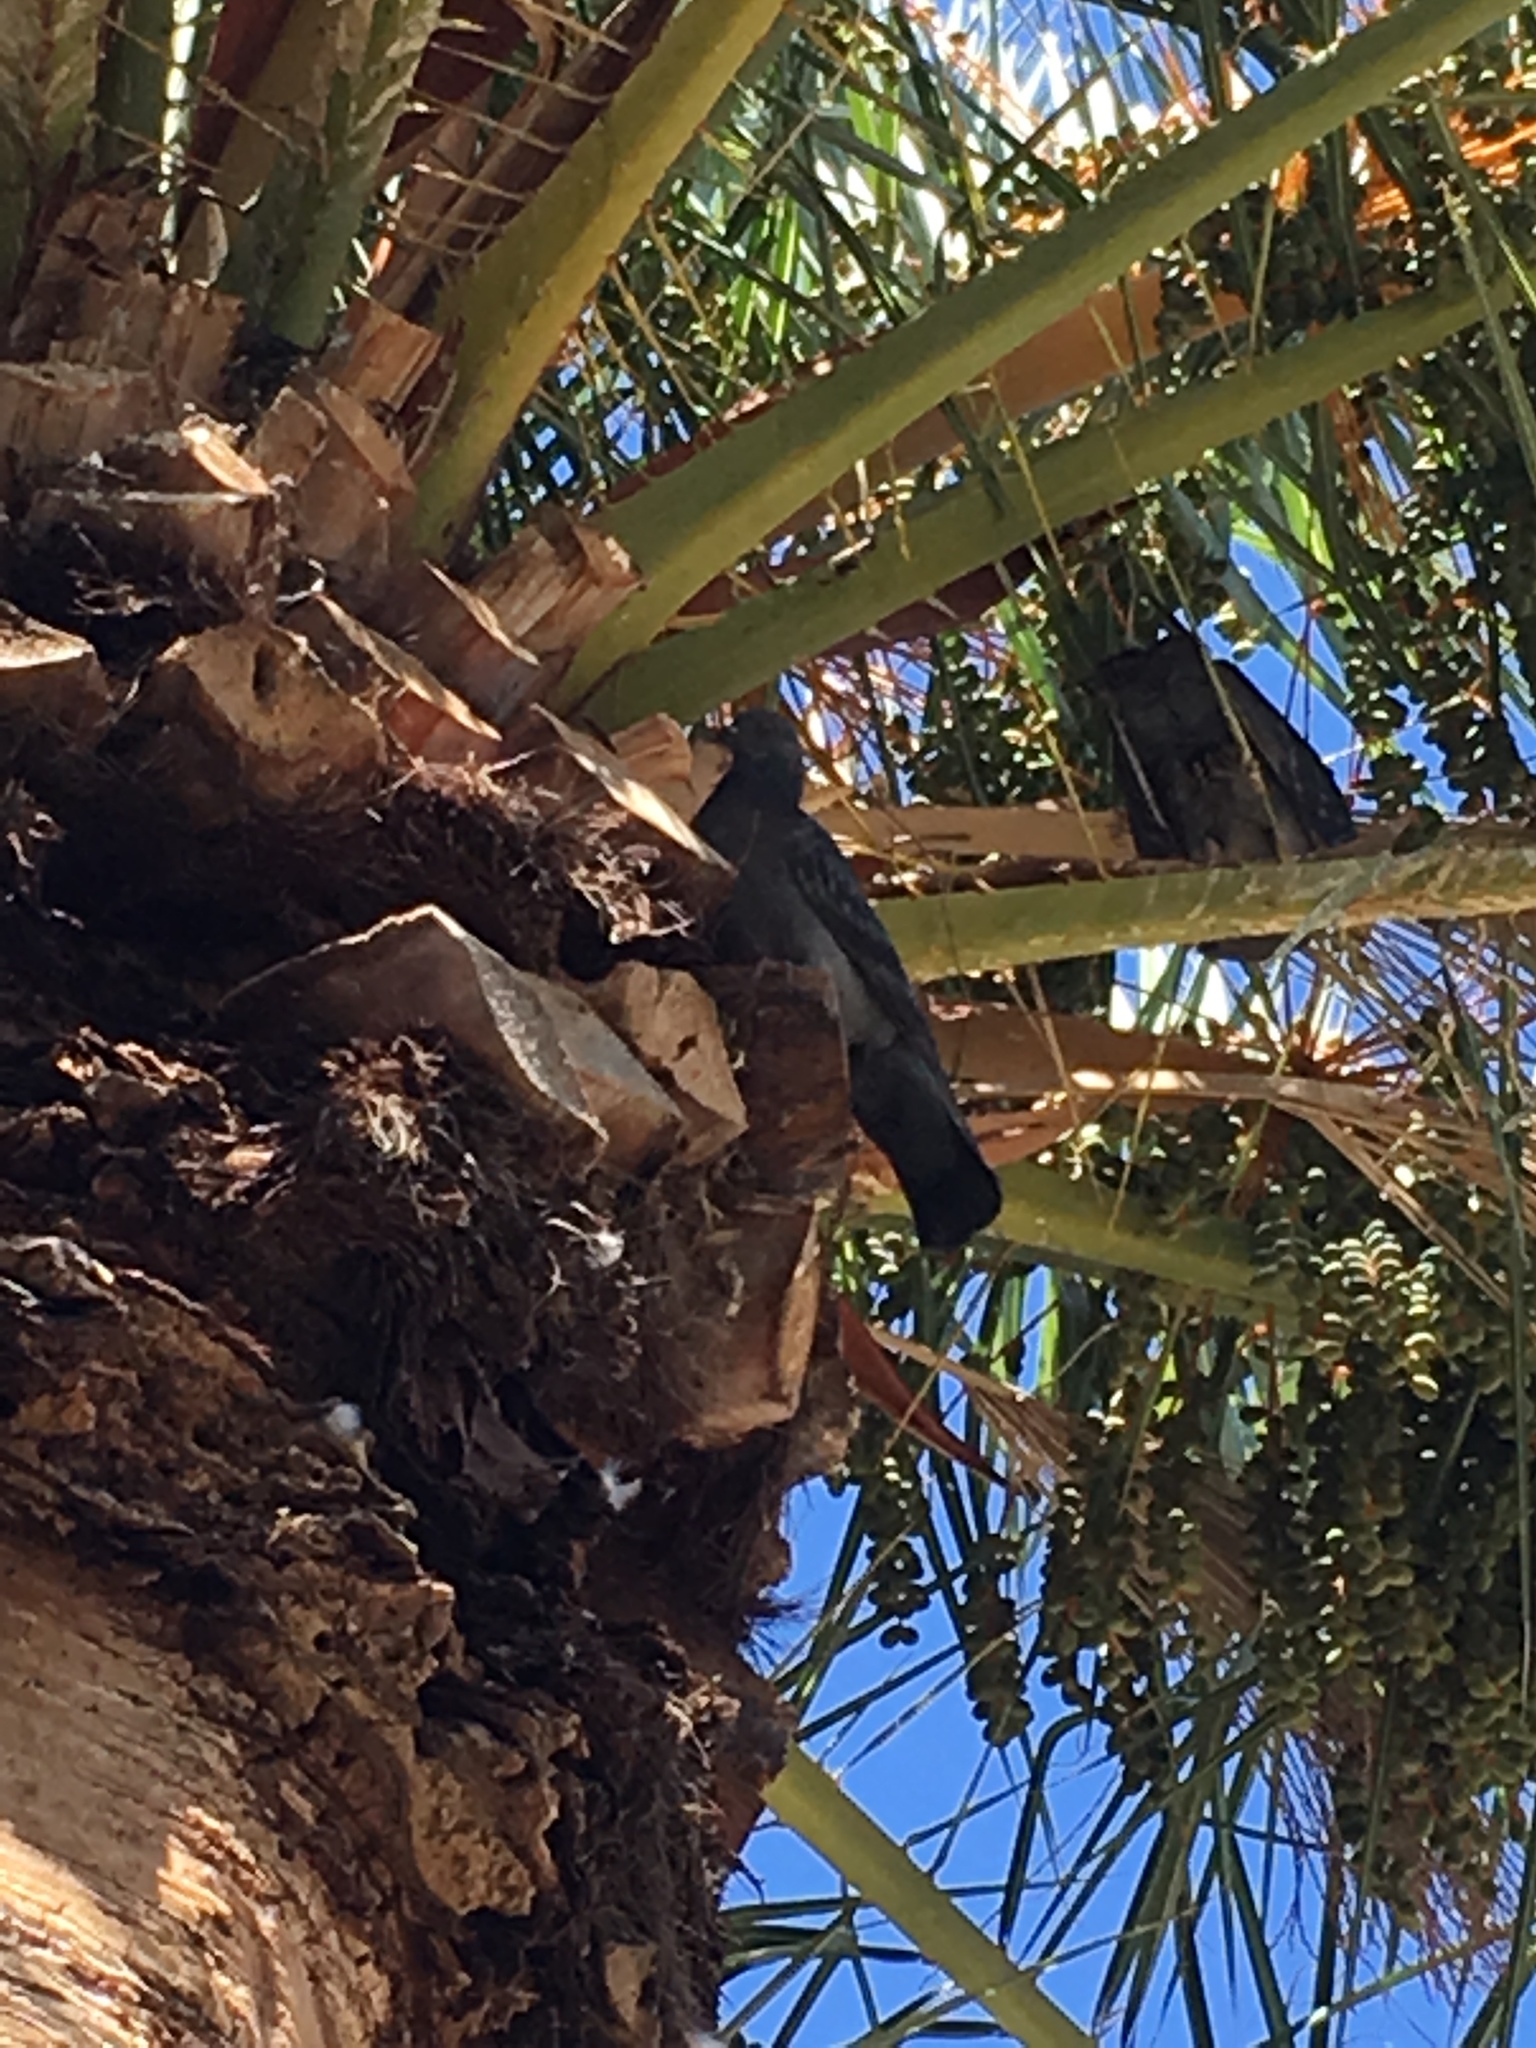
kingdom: Animalia
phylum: Chordata
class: Aves
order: Columbiformes
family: Columbidae
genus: Columba
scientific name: Columba livia
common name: Rock pigeon
